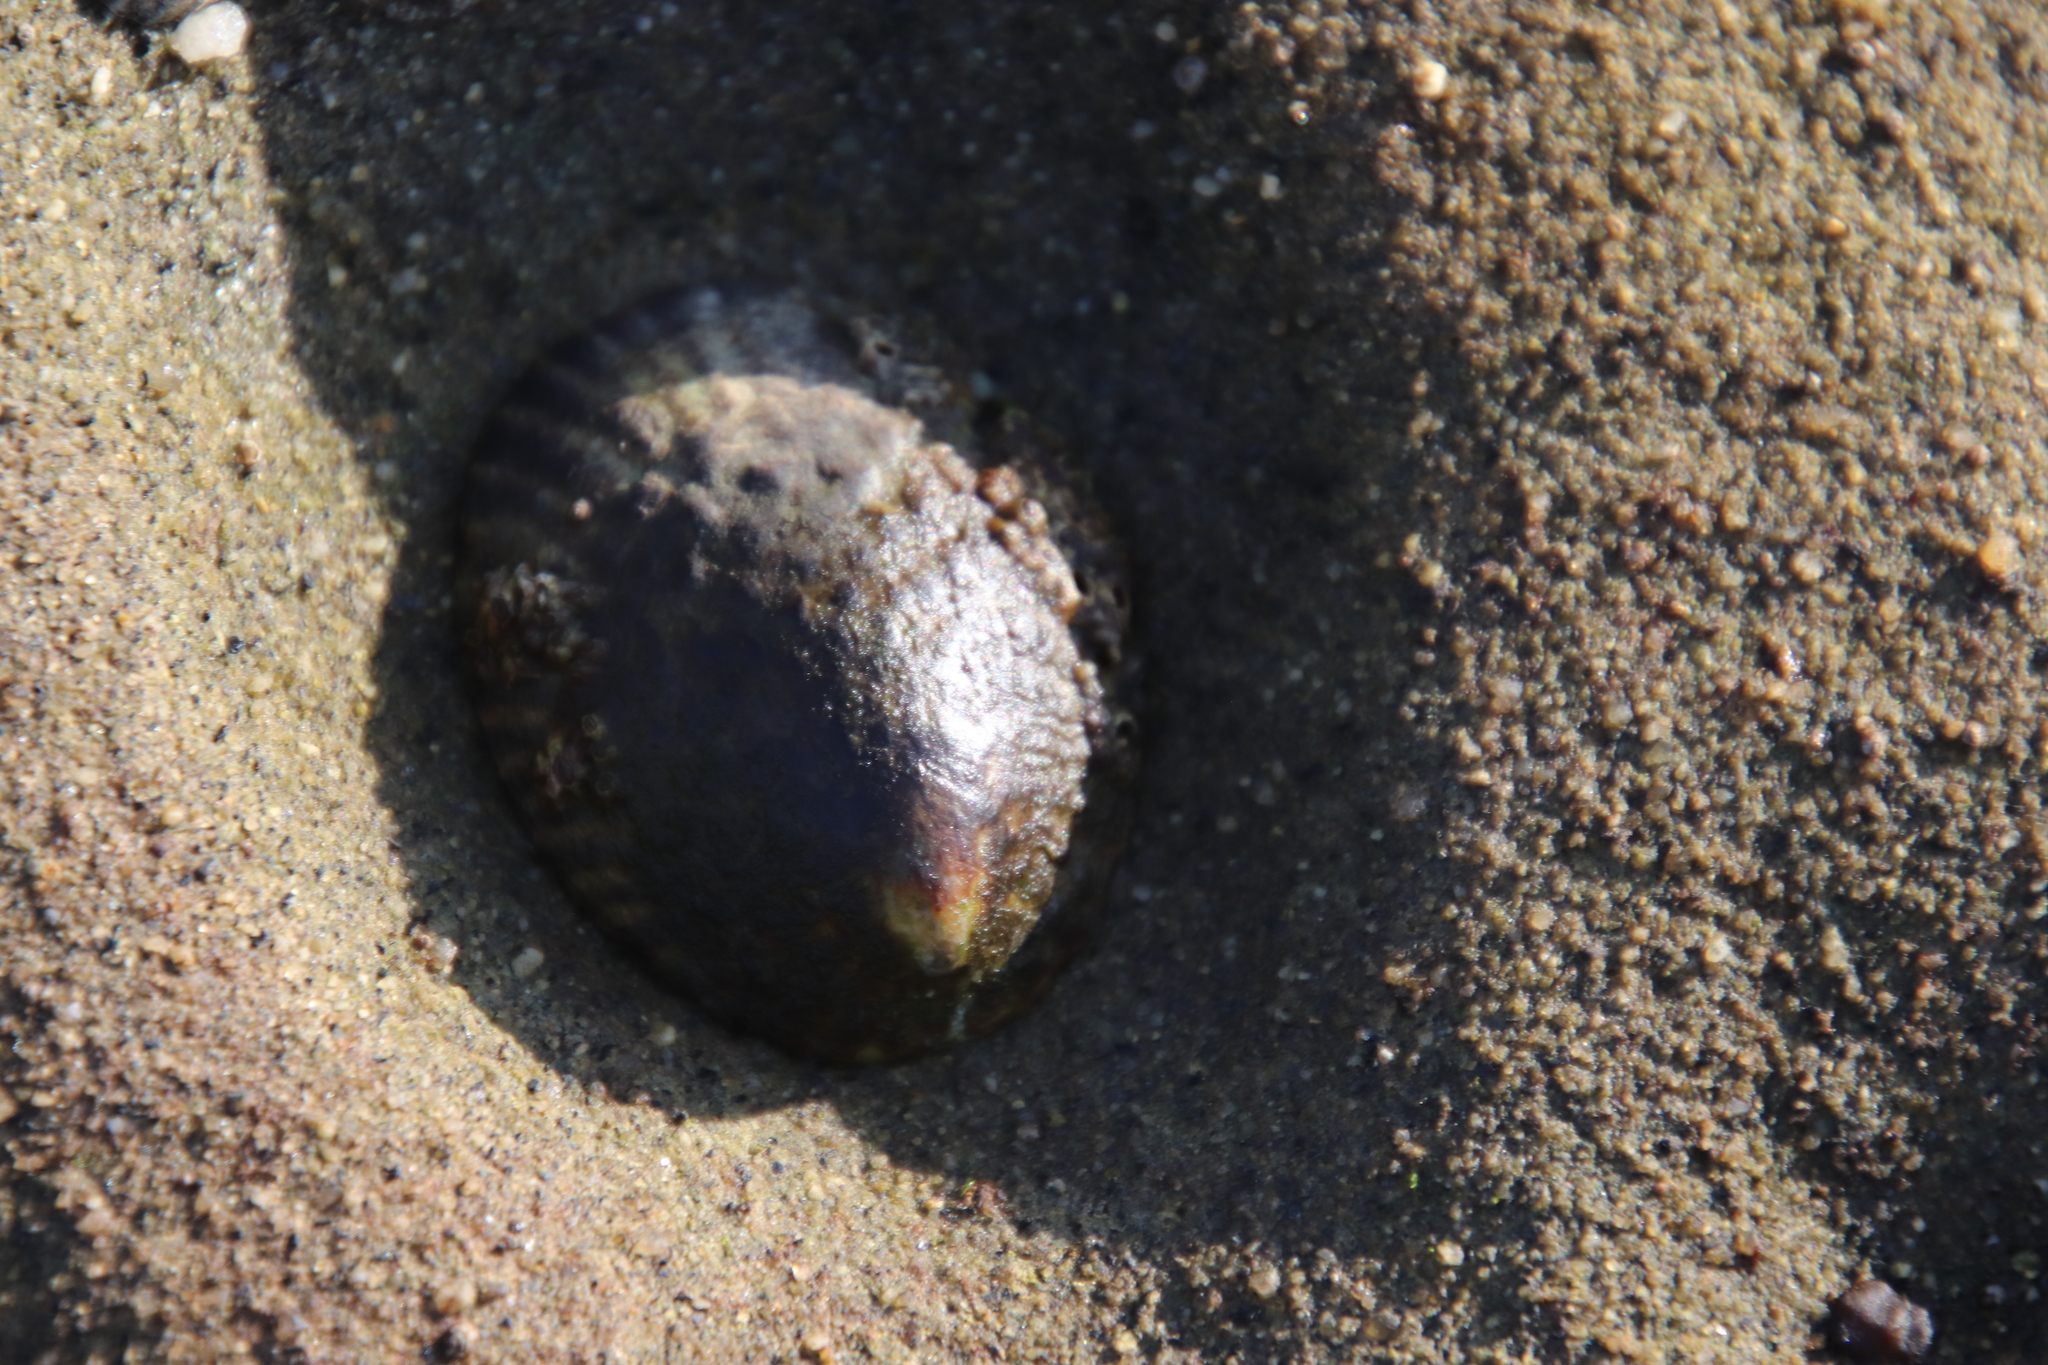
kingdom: Animalia
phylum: Mollusca
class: Gastropoda
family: Lottiidae
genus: Lottia
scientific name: Lottia gigantea
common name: Owl limpet
